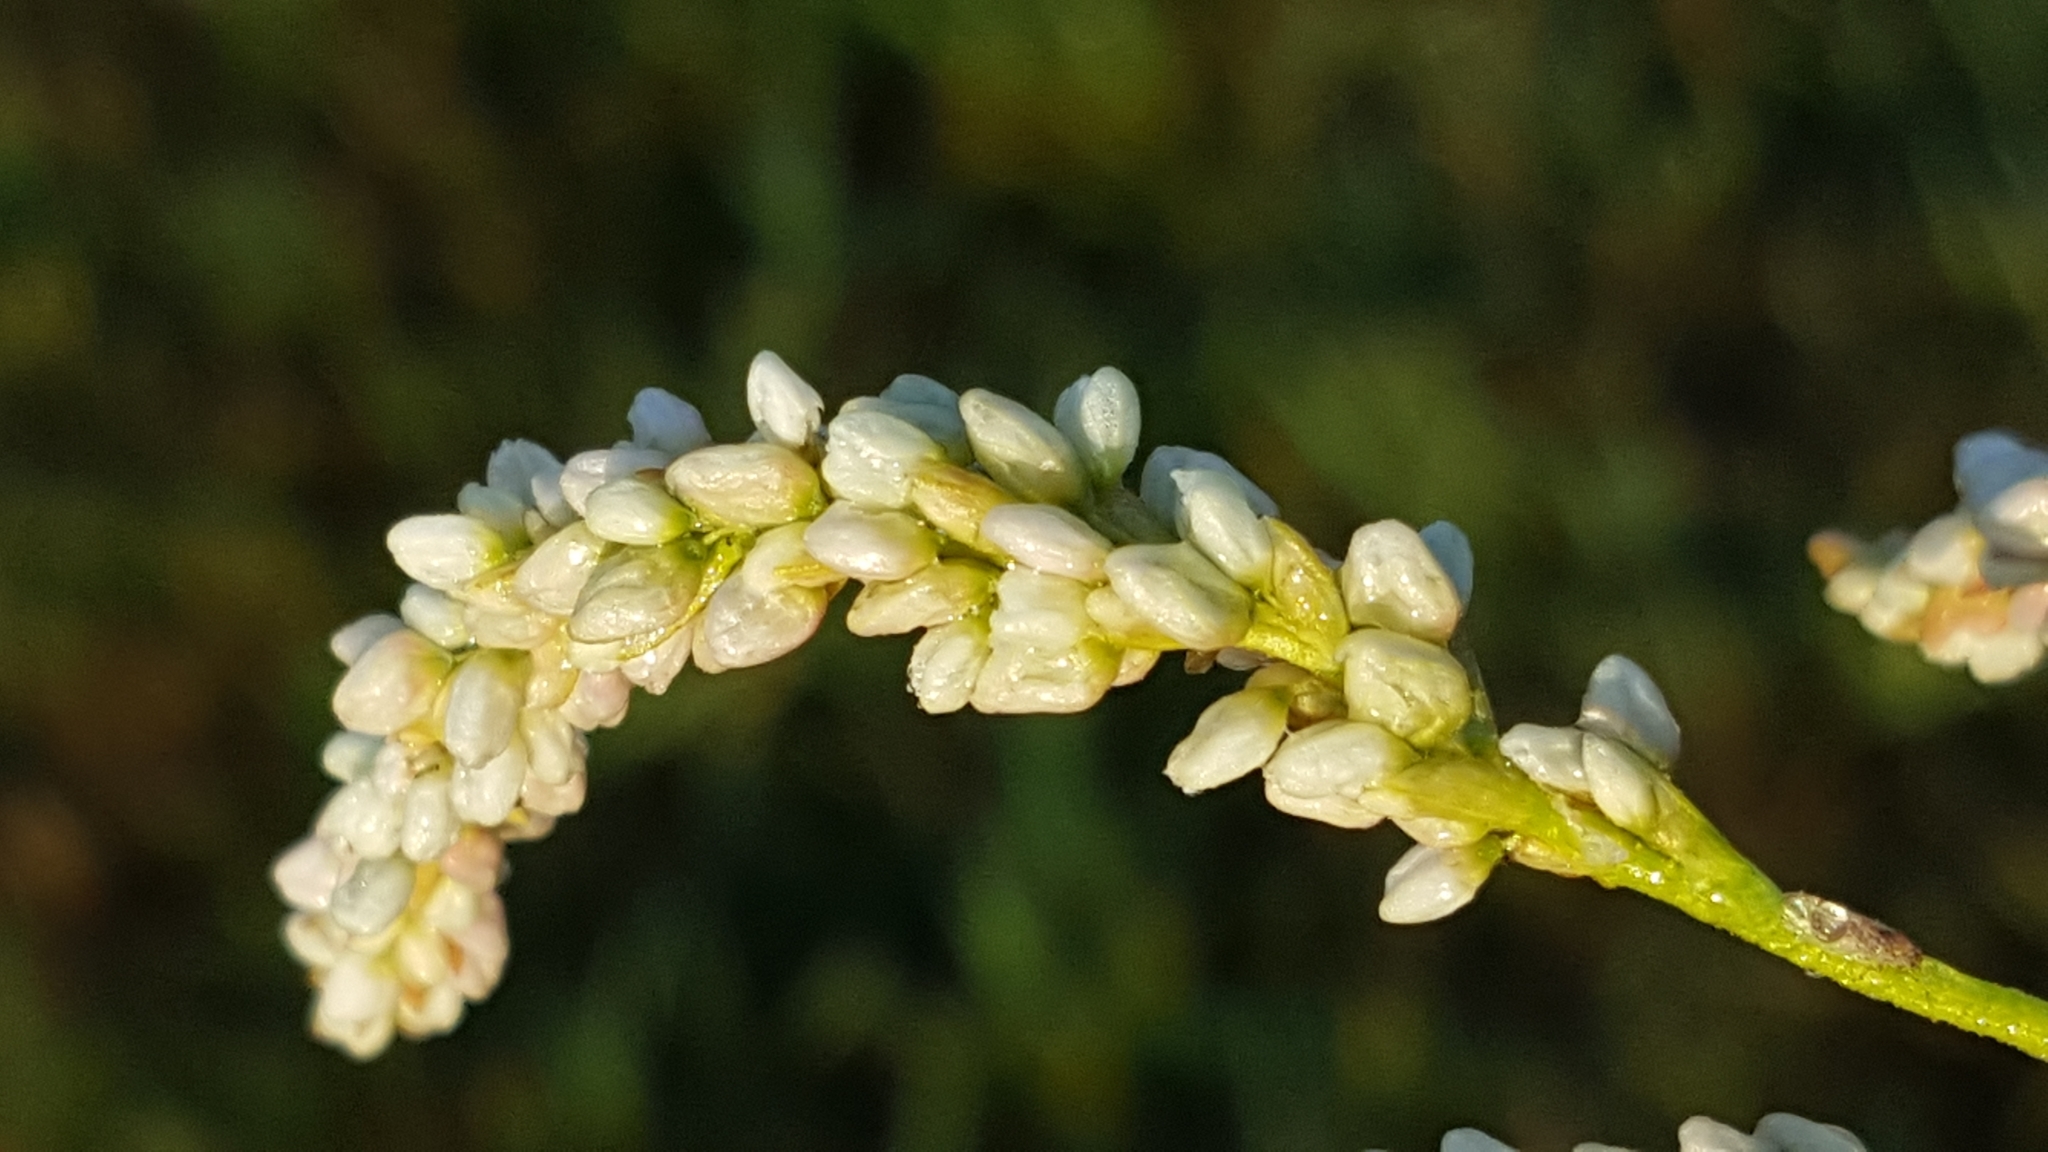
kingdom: Plantae
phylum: Tracheophyta
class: Magnoliopsida
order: Caryophyllales
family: Polygonaceae
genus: Persicaria
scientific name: Persicaria lapathifolia
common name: Curlytop knotweed
